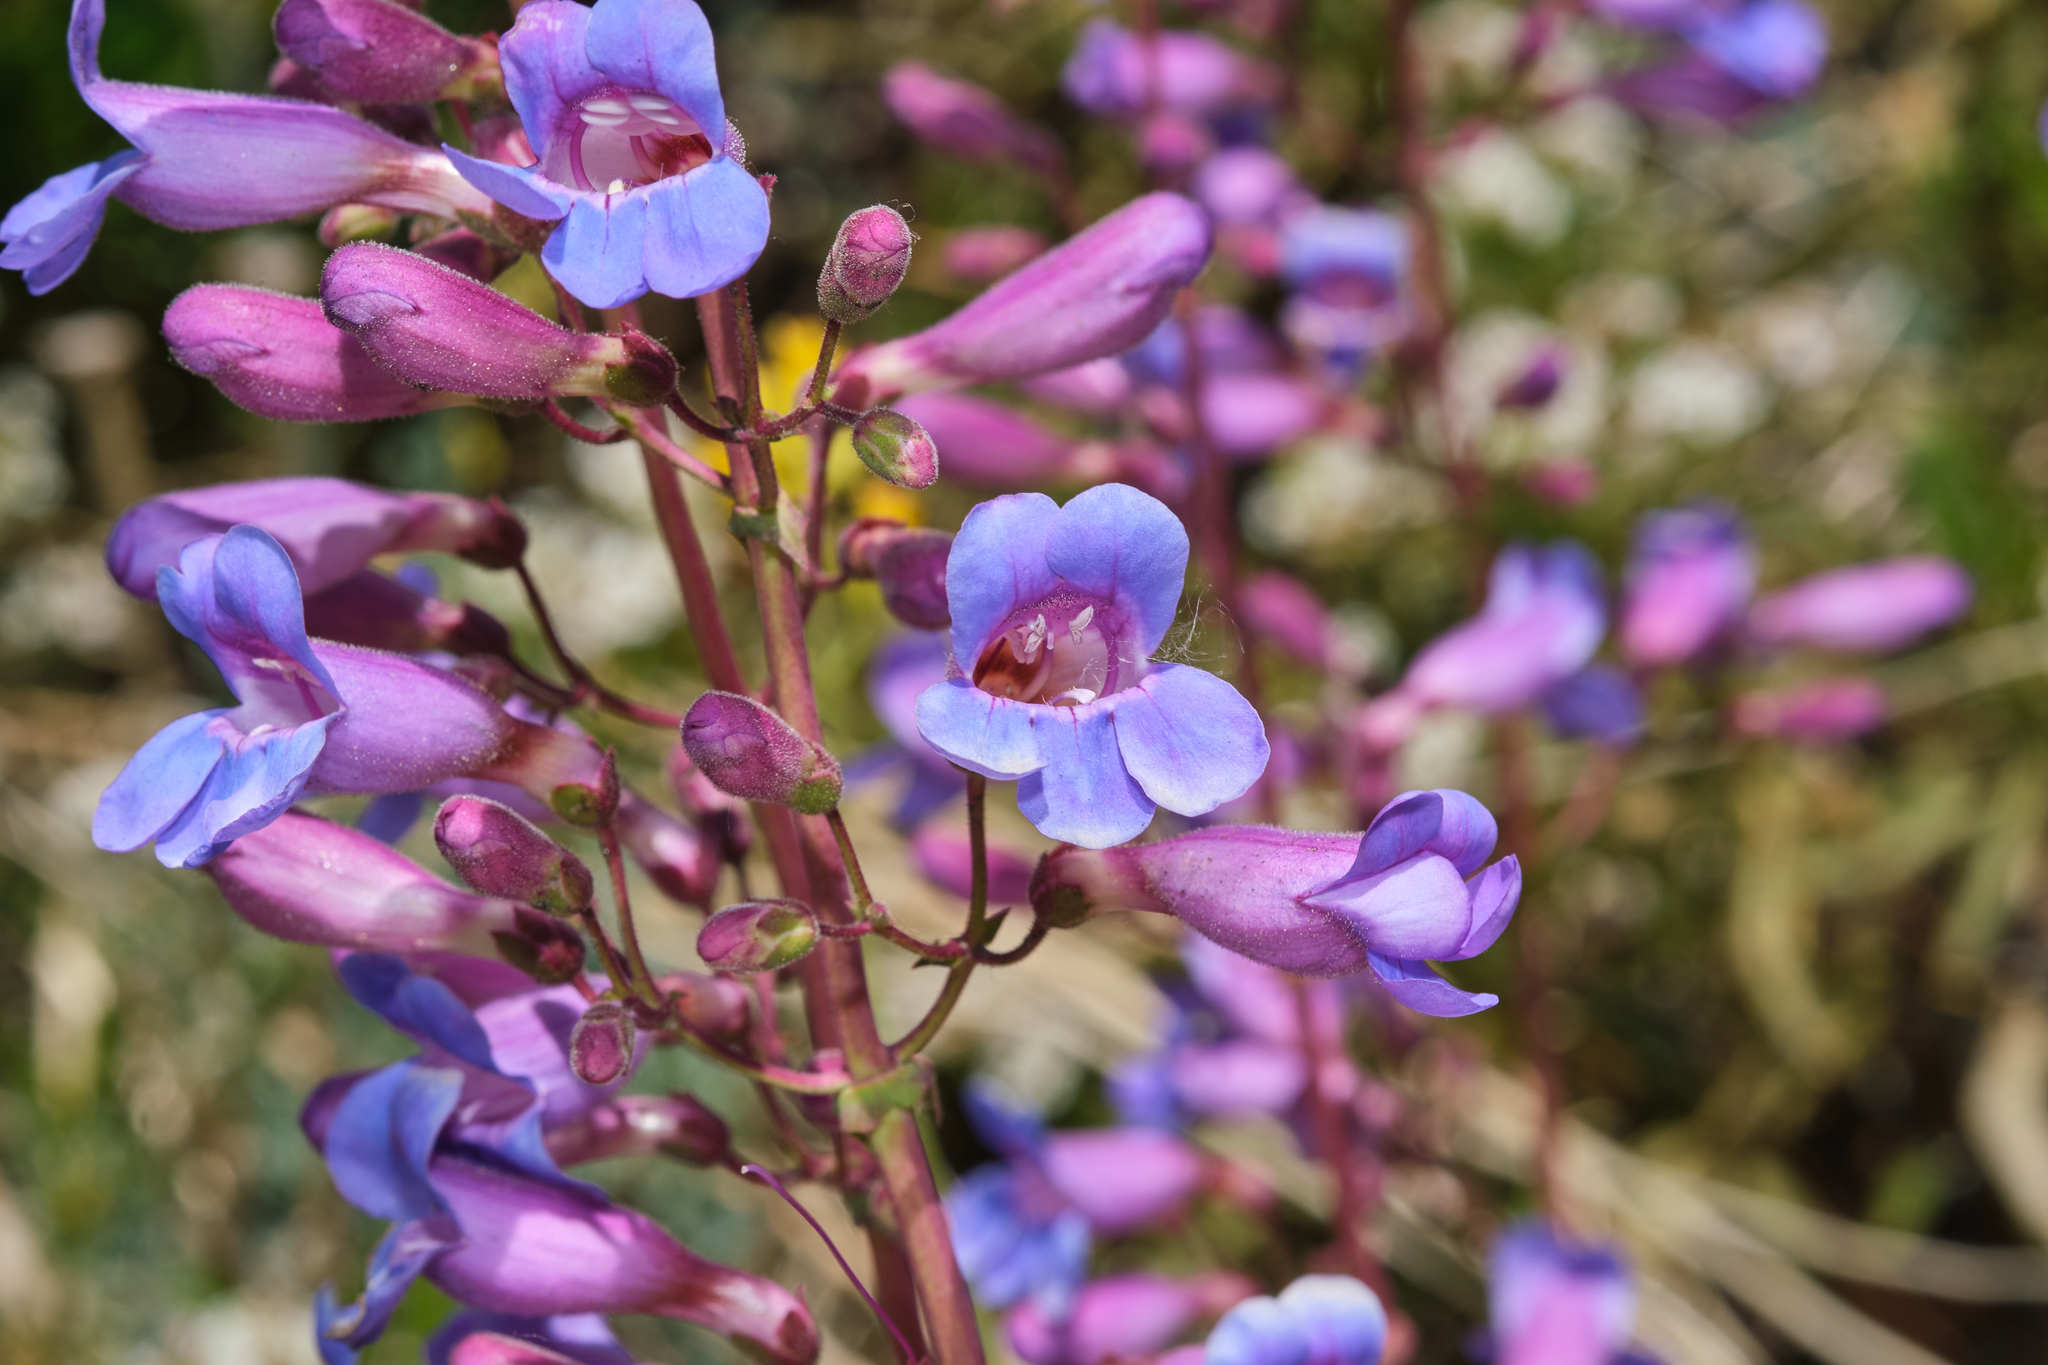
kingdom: Plantae
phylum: Tracheophyta
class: Magnoliopsida
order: Lamiales
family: Plantaginaceae
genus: Penstemon
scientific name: Penstemon spectabilis
